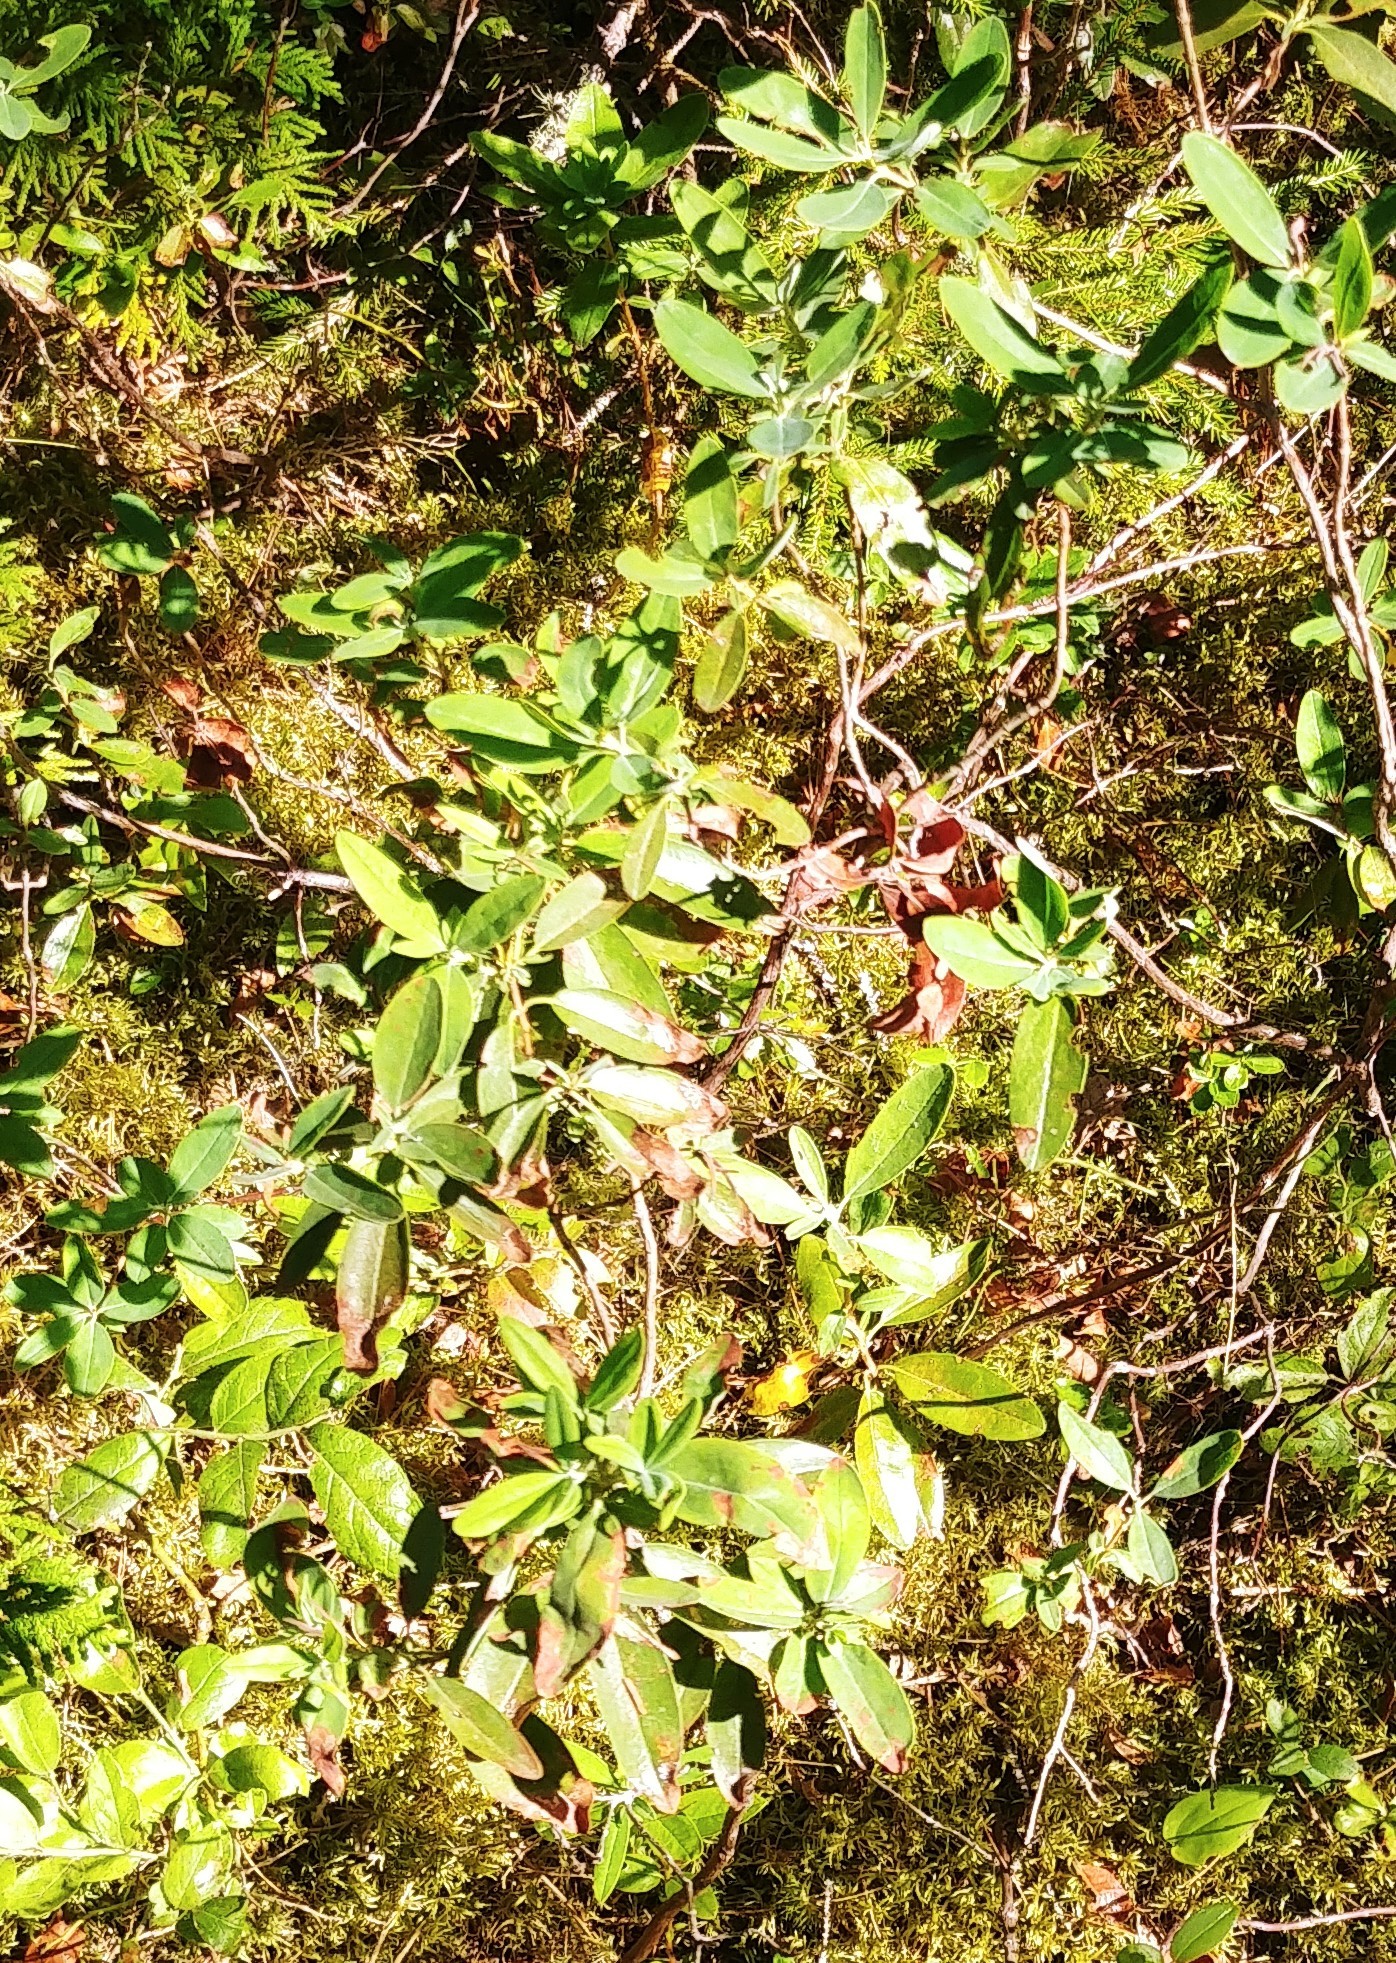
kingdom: Plantae
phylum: Tracheophyta
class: Magnoliopsida
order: Ericales
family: Ericaceae
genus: Kalmia
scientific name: Kalmia angustifolia
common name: Sheep-laurel
